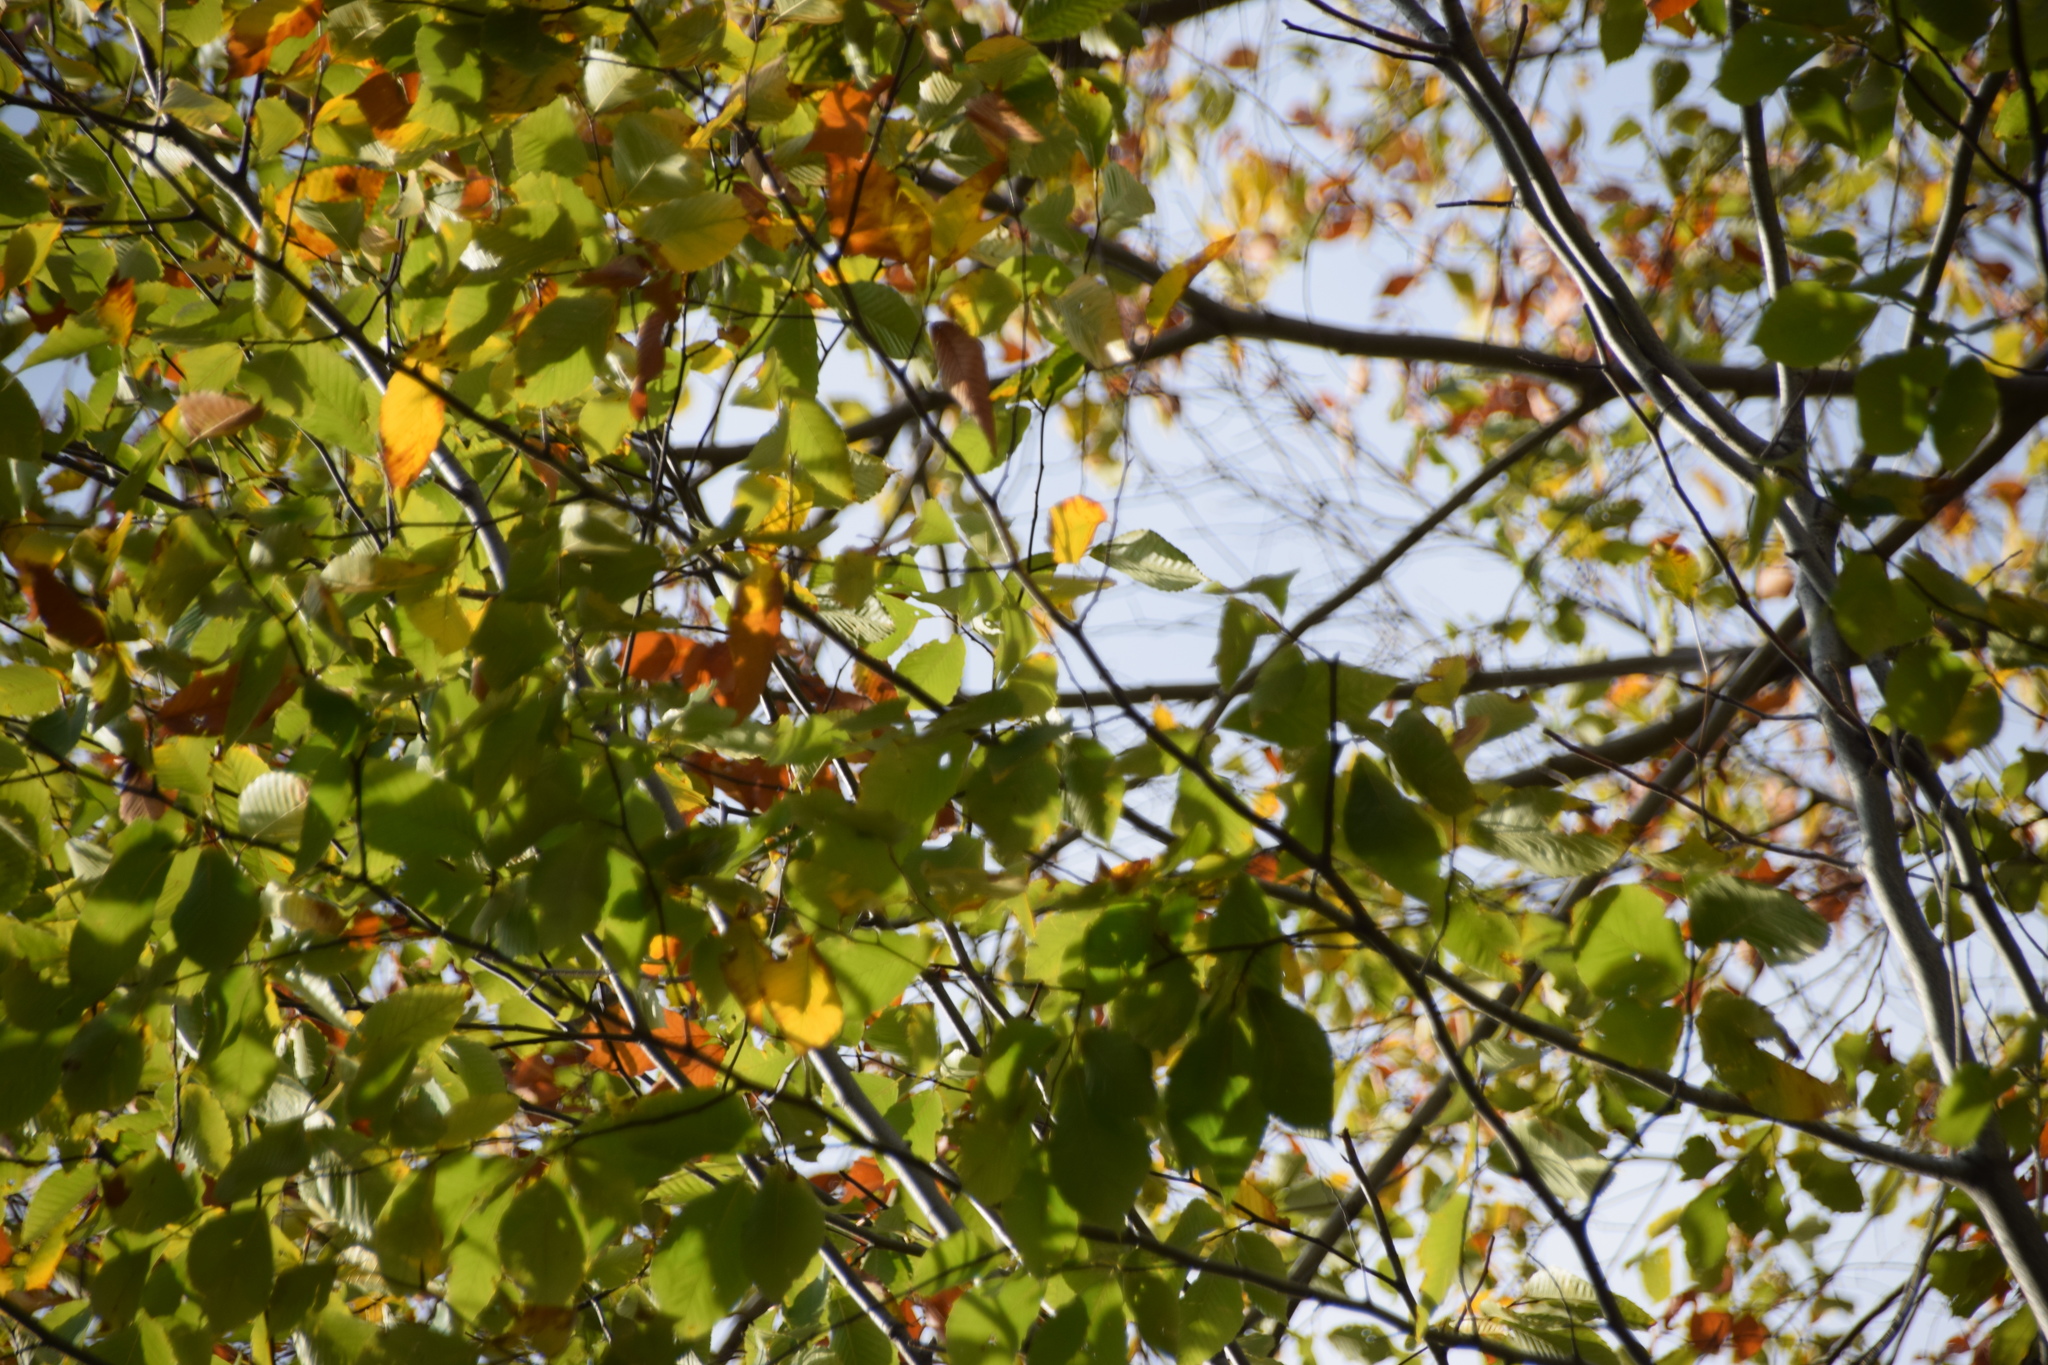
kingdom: Plantae
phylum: Tracheophyta
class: Magnoliopsida
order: Fagales
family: Fagaceae
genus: Fagus
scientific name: Fagus grandifolia
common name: American beech
